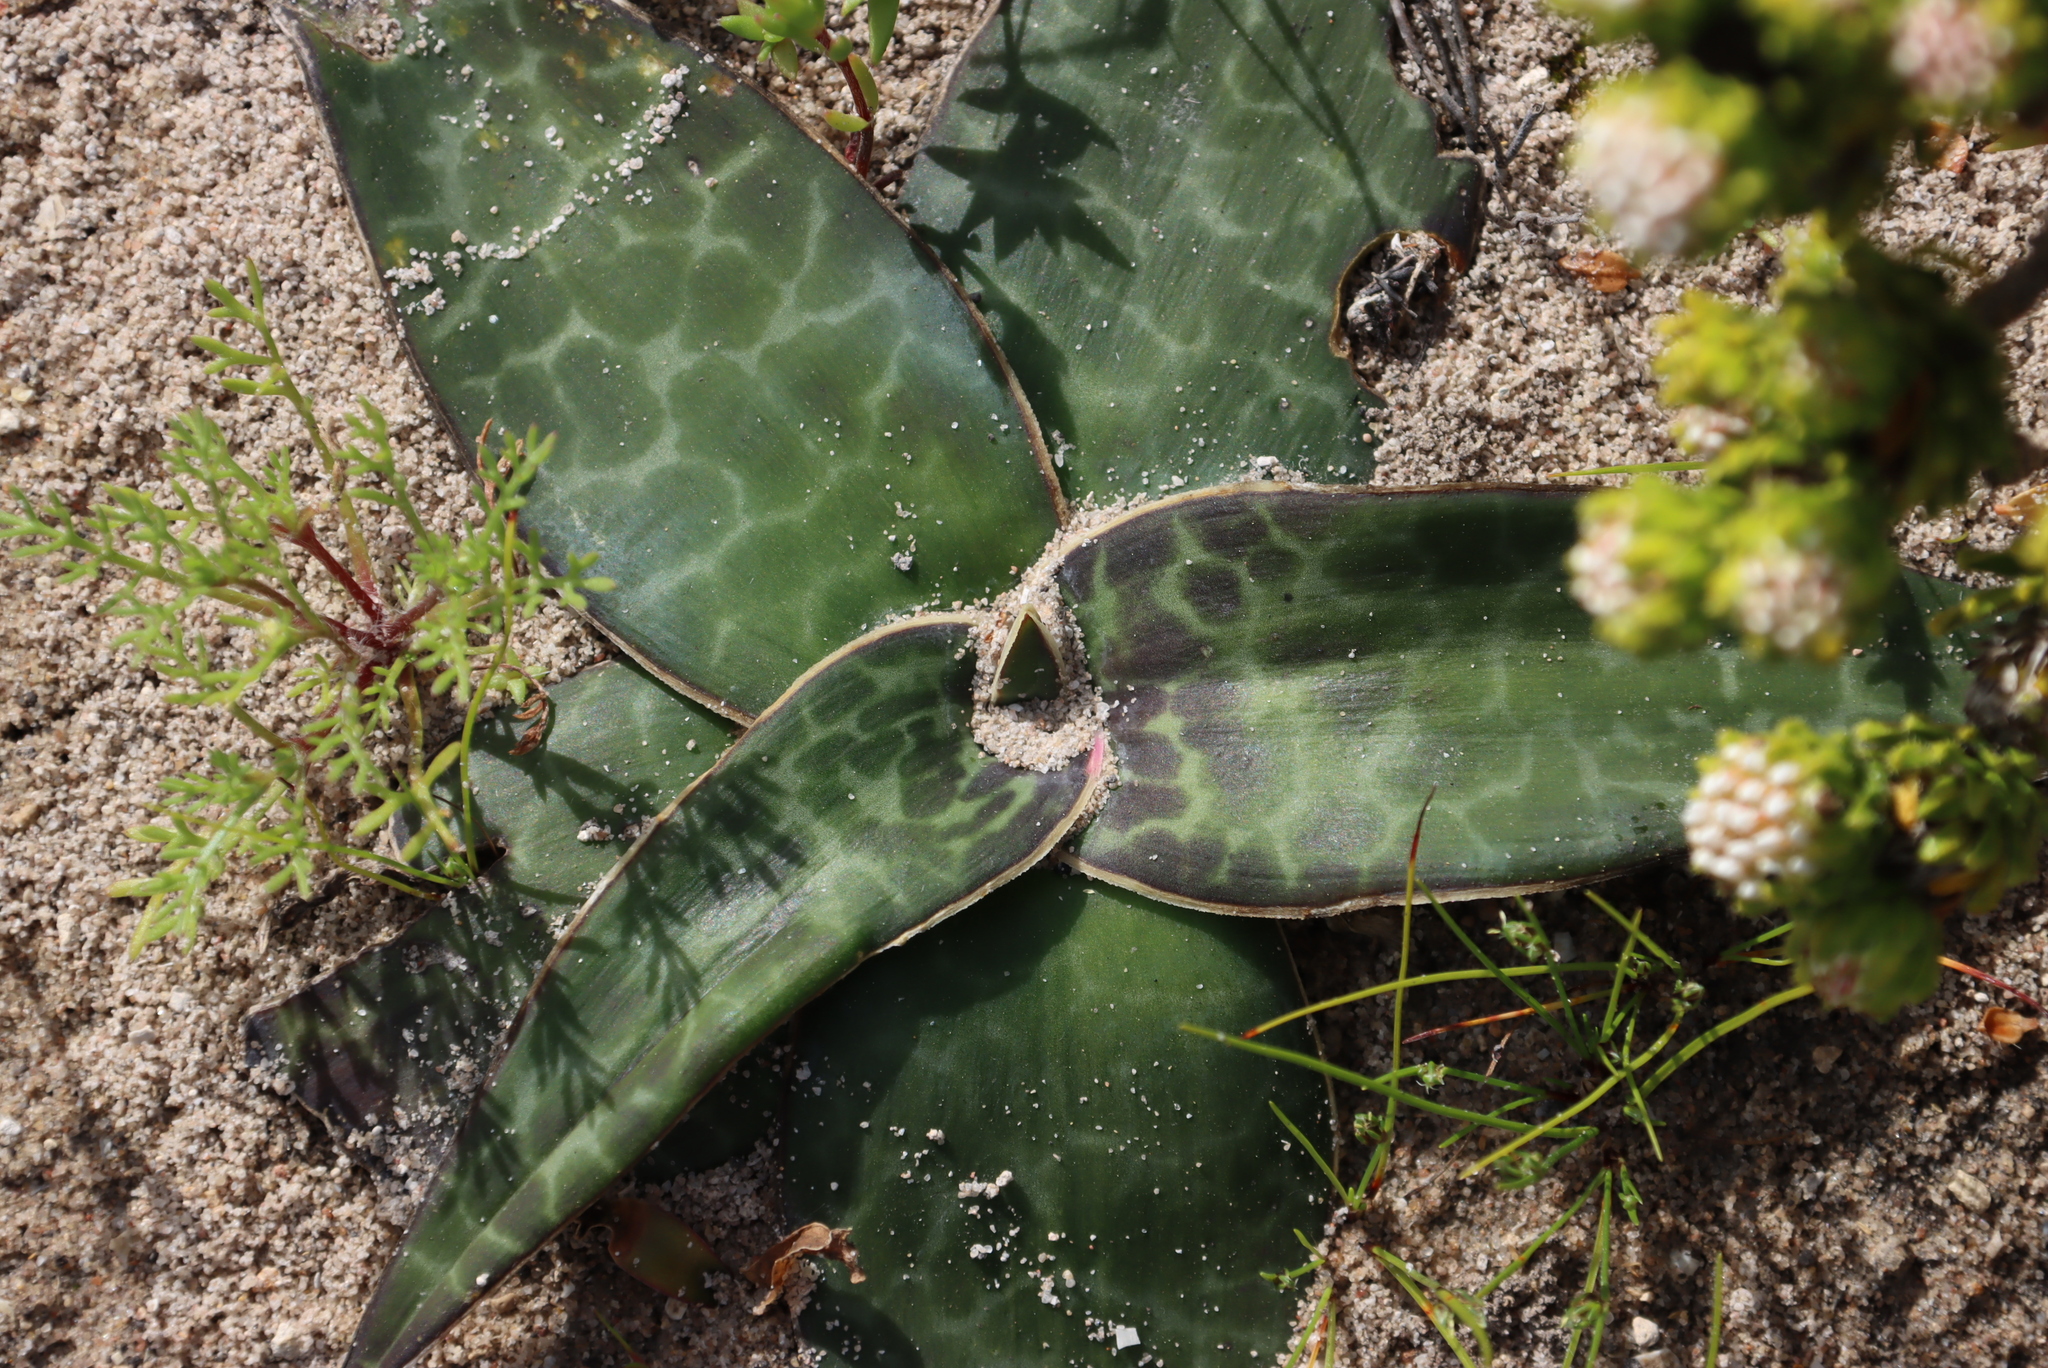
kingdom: Plantae
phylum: Tracheophyta
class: Liliopsida
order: Asparagales
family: Asparagaceae
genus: Ledebouria
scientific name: Ledebouria revoluta
